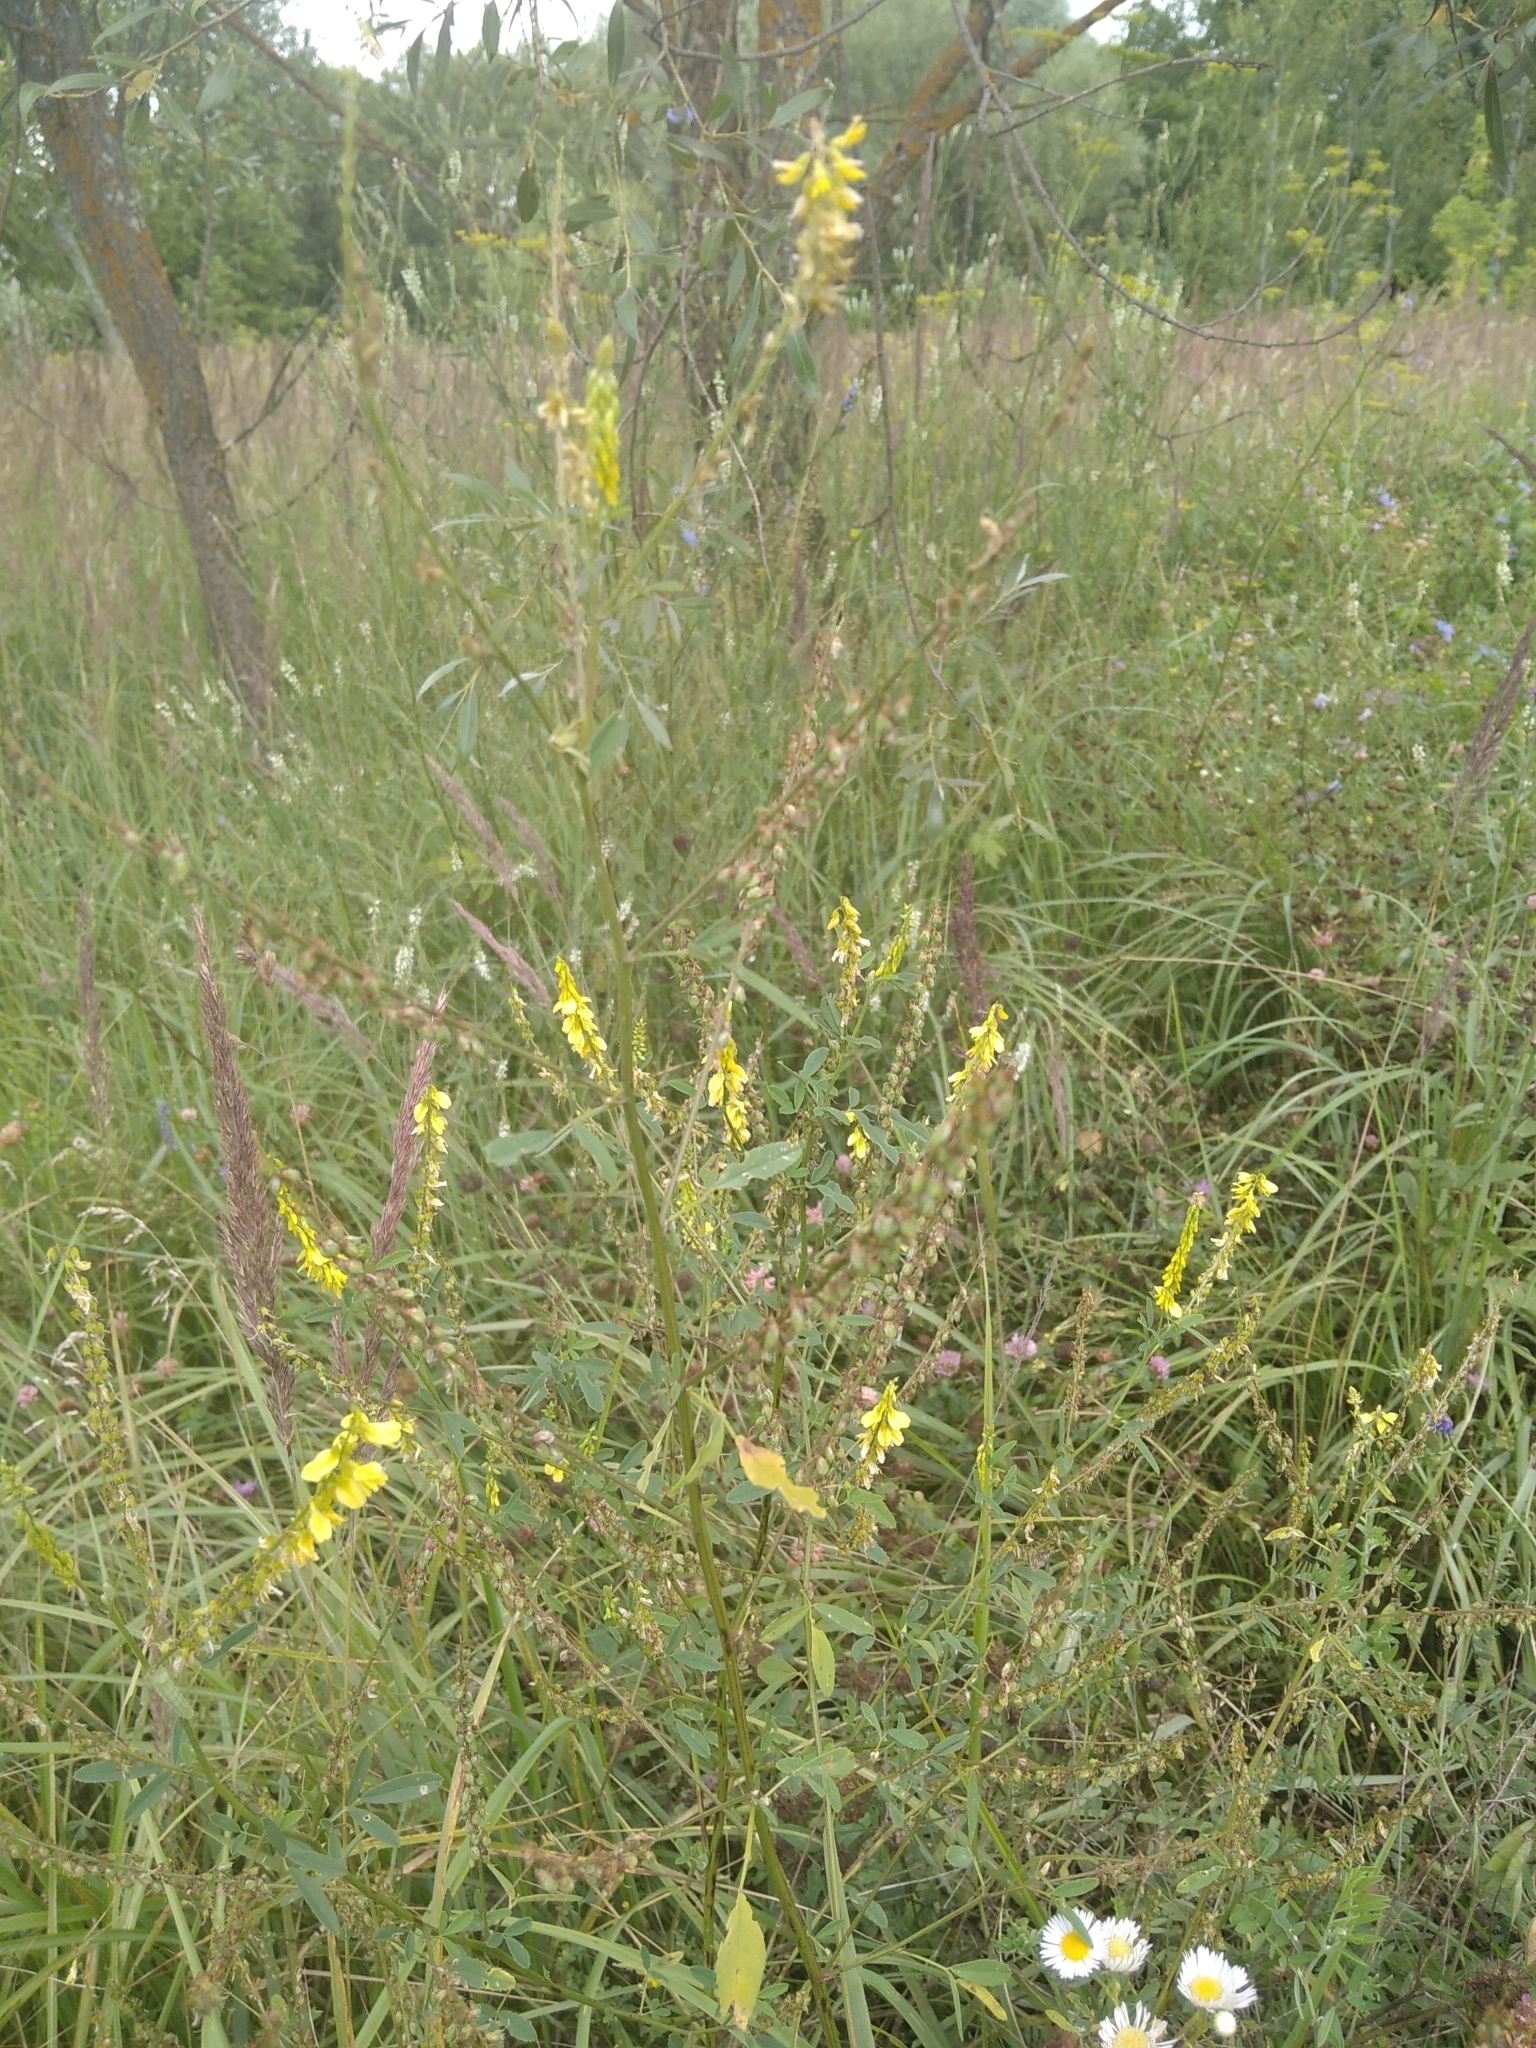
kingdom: Plantae
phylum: Tracheophyta
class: Magnoliopsida
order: Fabales
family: Fabaceae
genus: Melilotus
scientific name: Melilotus officinalis
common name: Sweetclover
